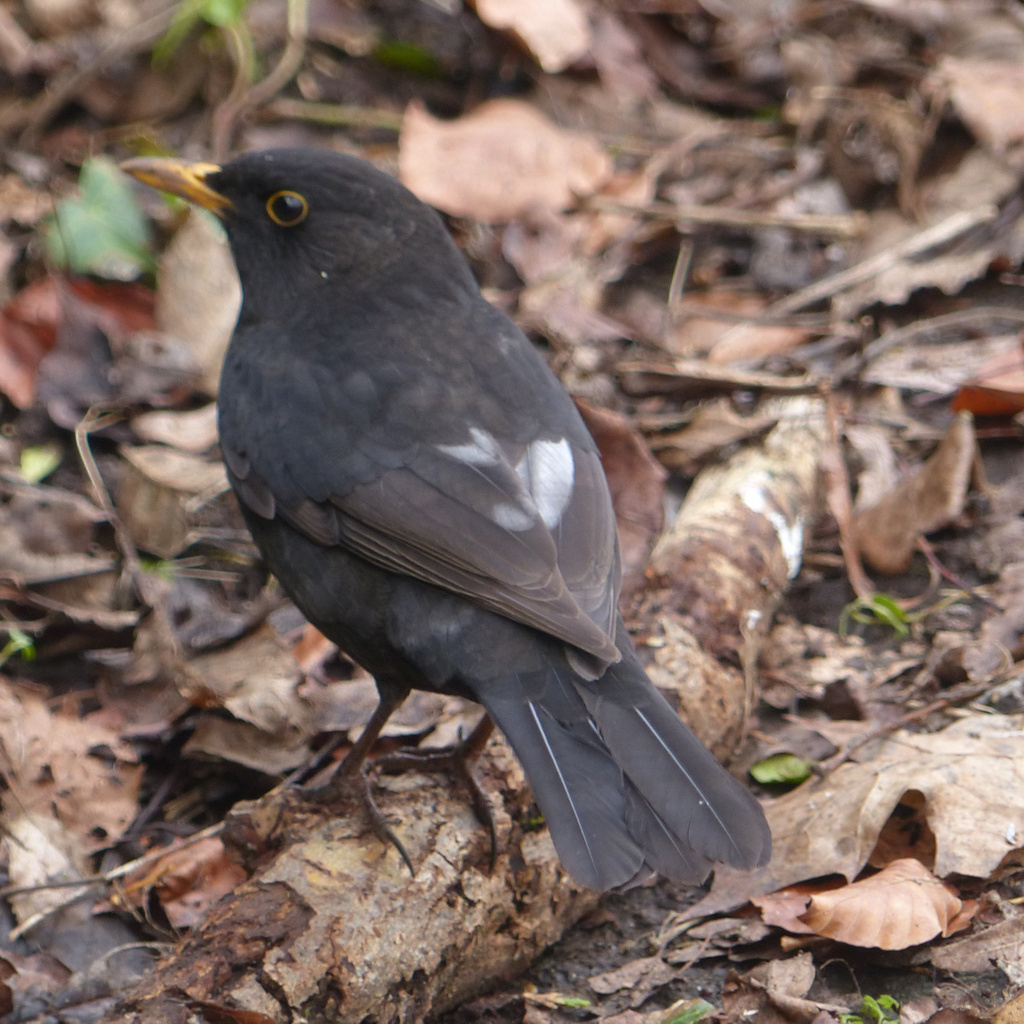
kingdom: Animalia
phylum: Chordata
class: Aves
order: Passeriformes
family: Turdidae
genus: Turdus
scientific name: Turdus merula
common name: Common blackbird
